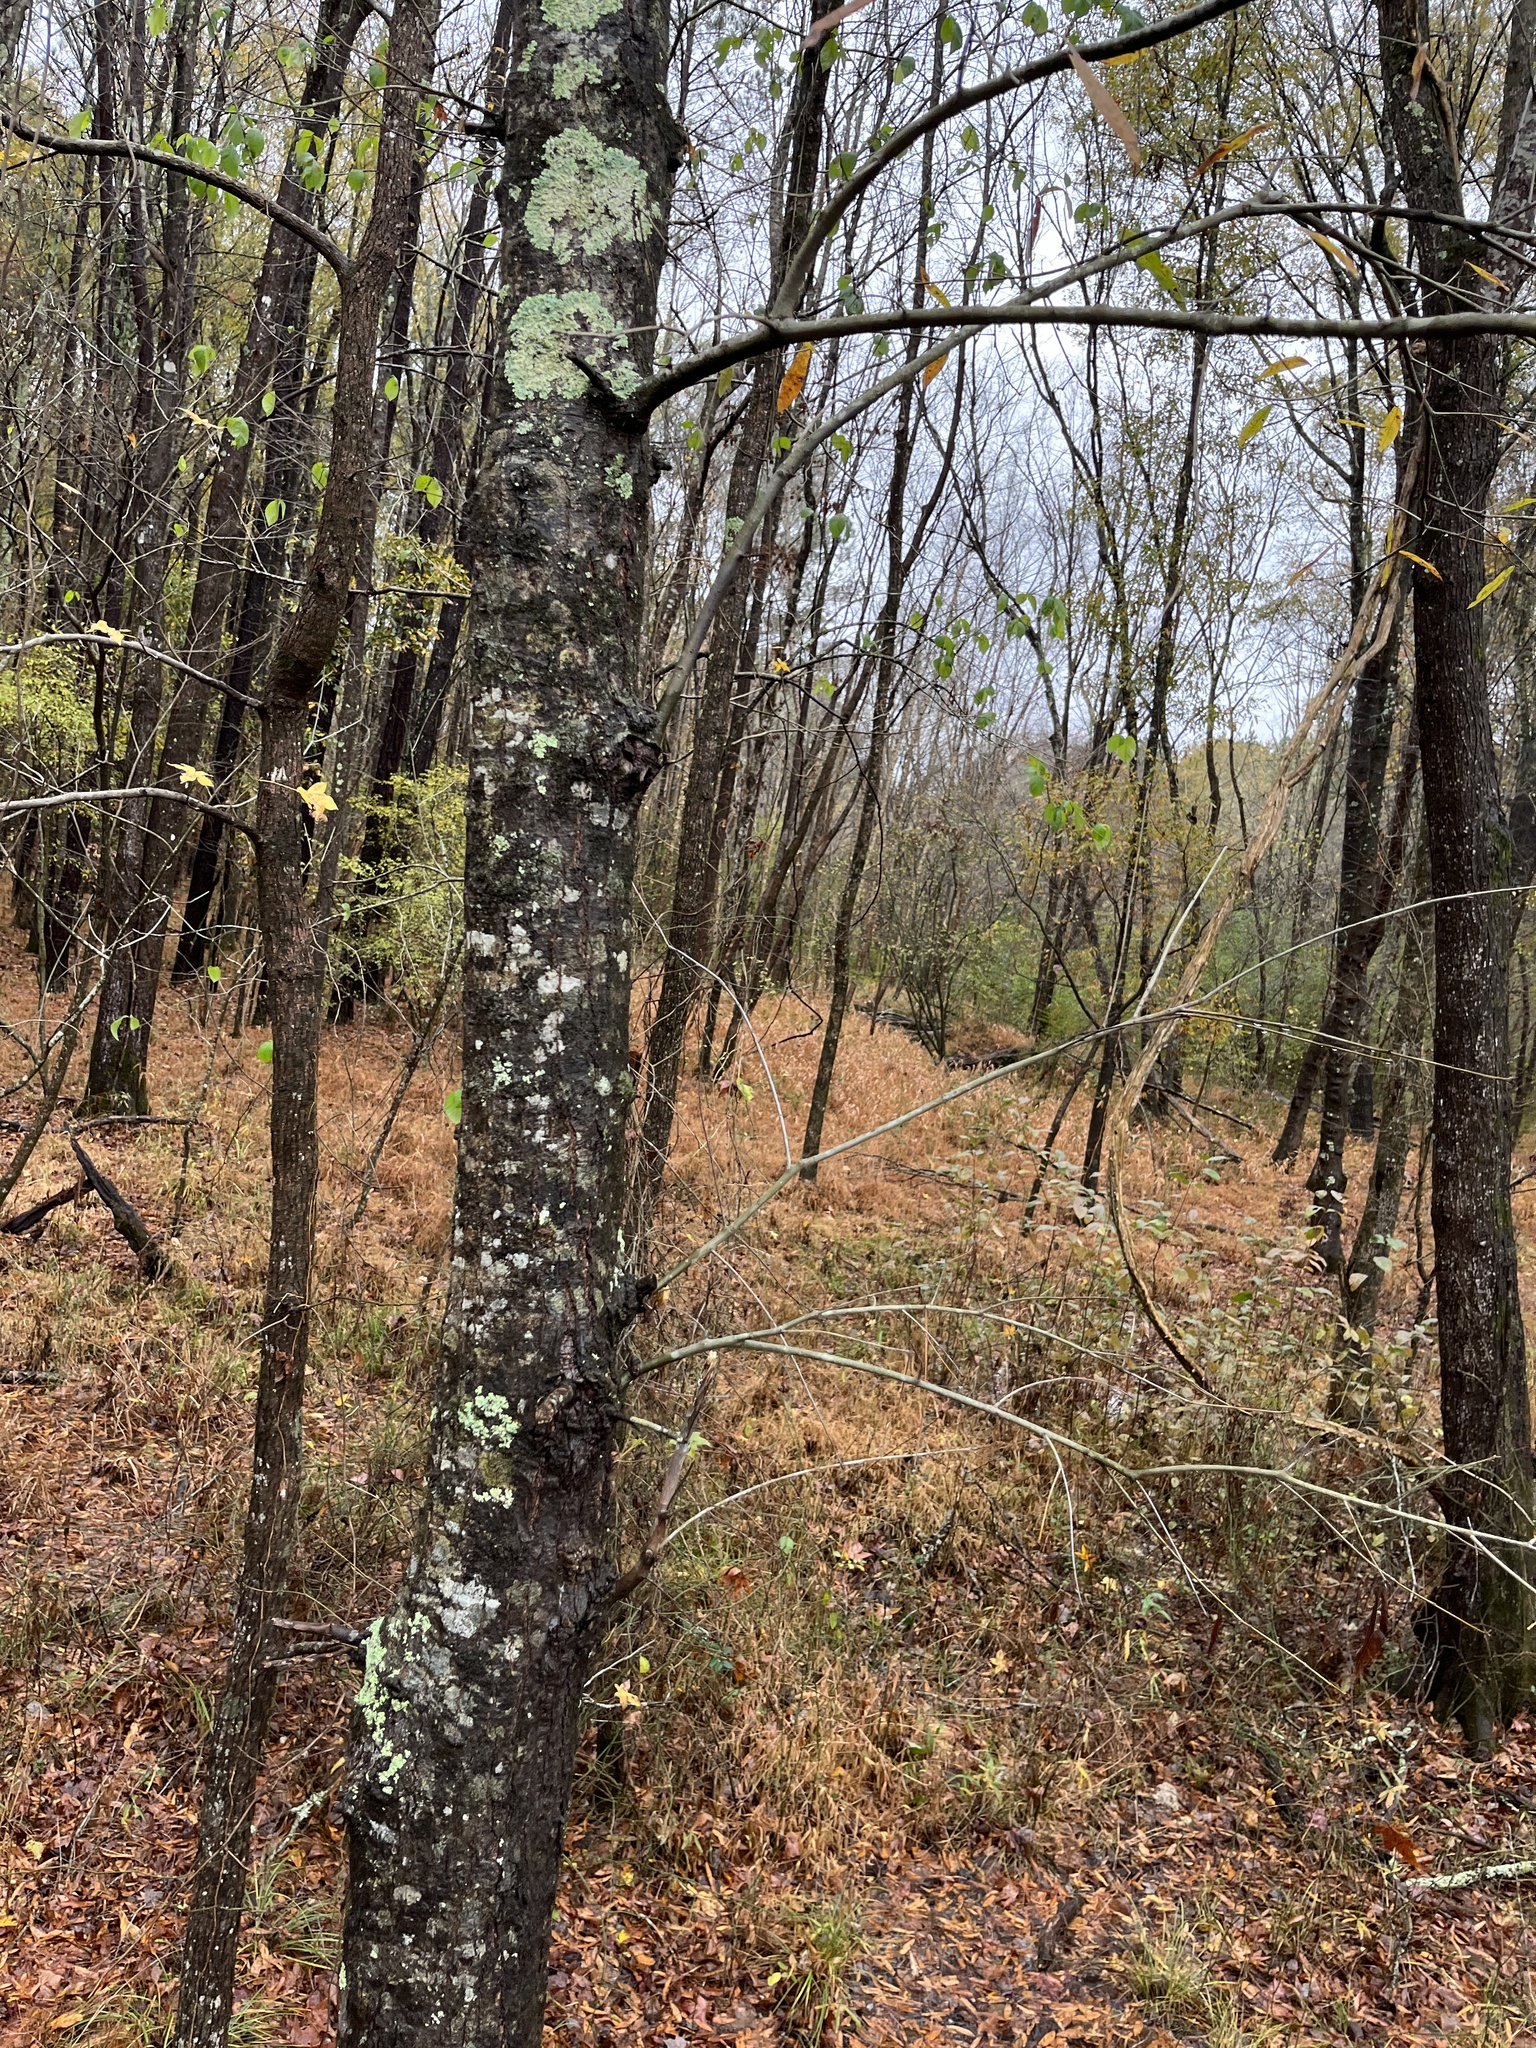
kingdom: Plantae
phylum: Tracheophyta
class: Magnoliopsida
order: Fagales
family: Fagaceae
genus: Quercus
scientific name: Quercus phellos
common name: Willow oak
